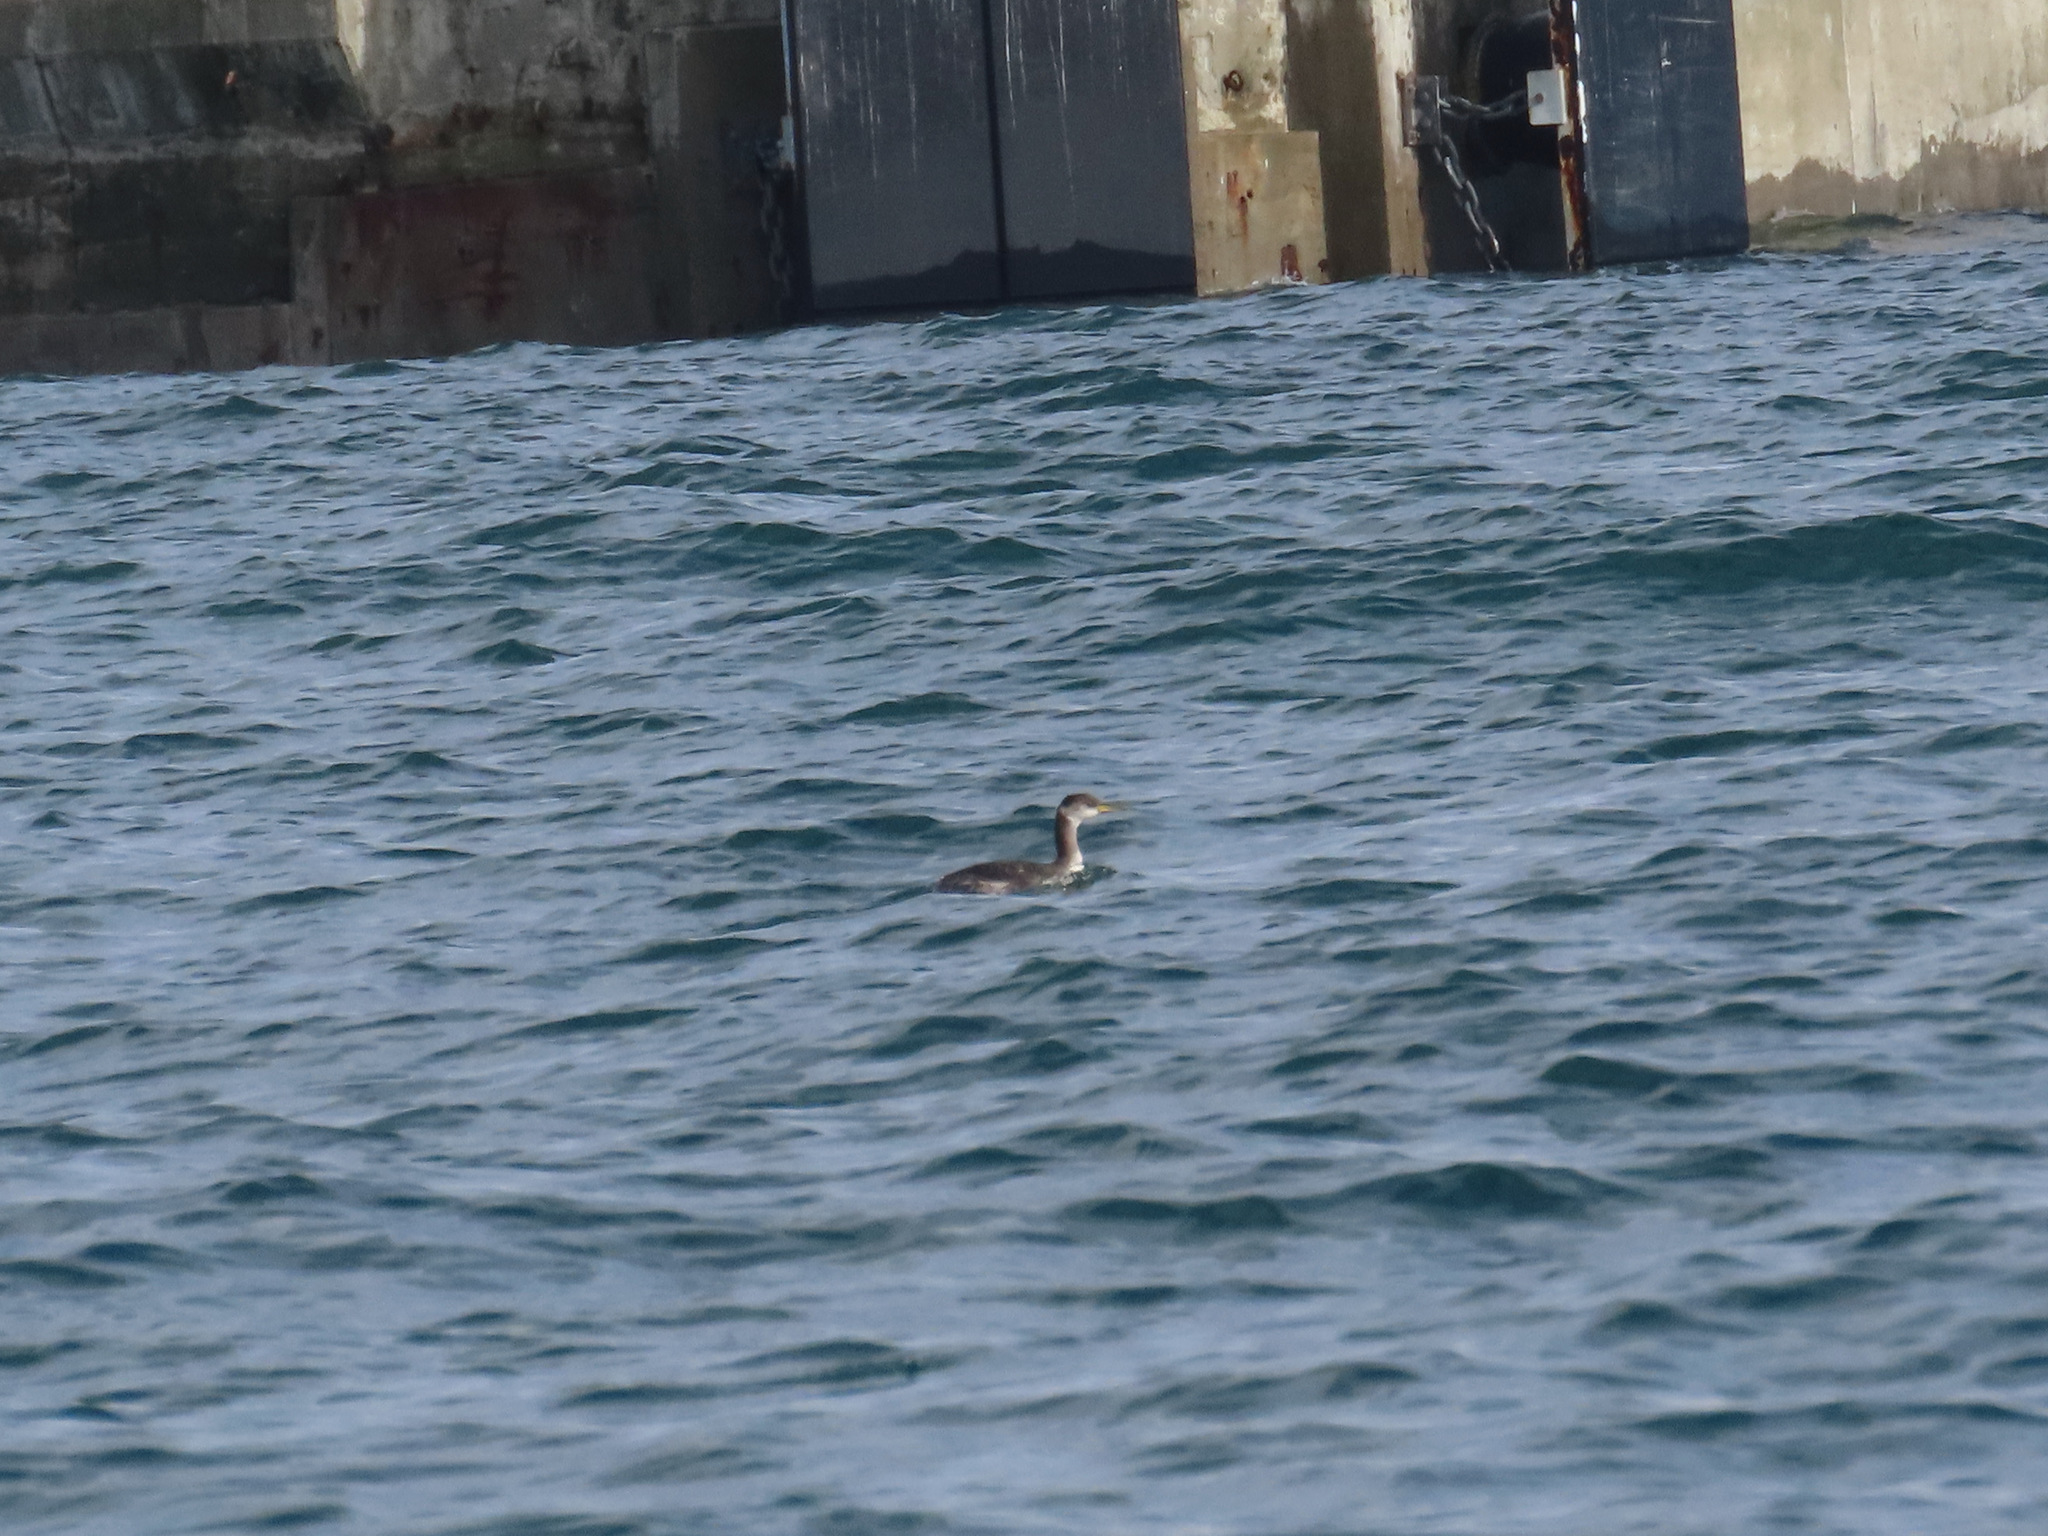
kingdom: Animalia
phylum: Chordata
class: Aves
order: Podicipediformes
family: Podicipedidae
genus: Podiceps
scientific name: Podiceps grisegena
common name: Red-necked grebe
